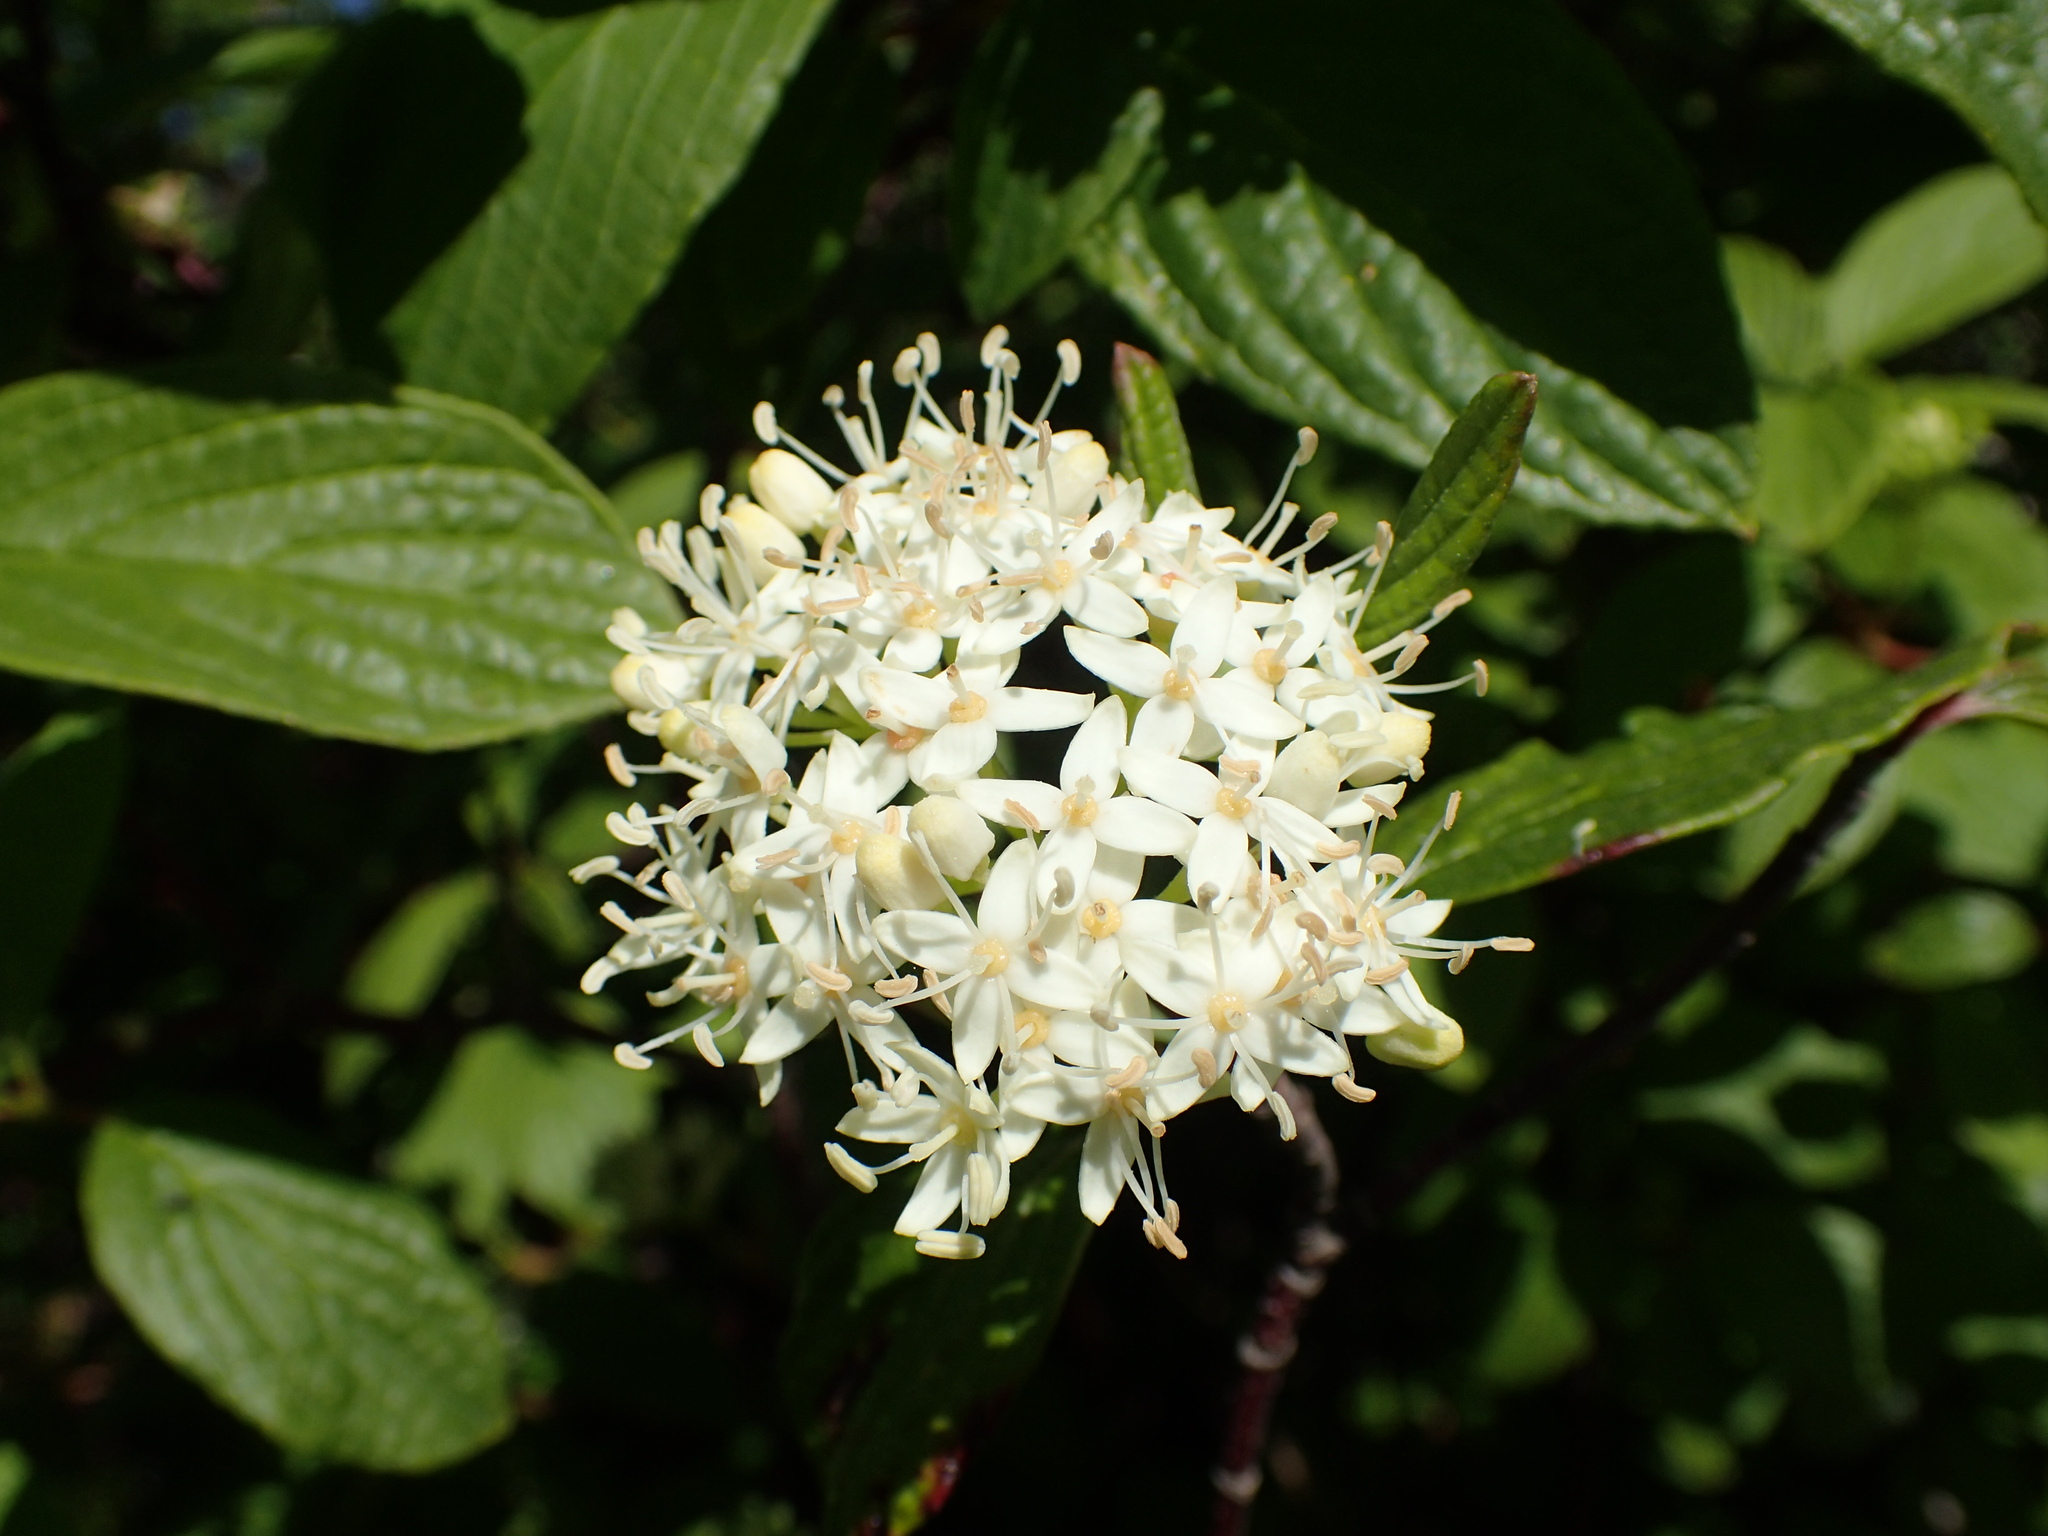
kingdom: Plantae
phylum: Tracheophyta
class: Magnoliopsida
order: Cornales
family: Cornaceae
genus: Cornus
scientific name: Cornus sericea
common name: Red-osier dogwood
